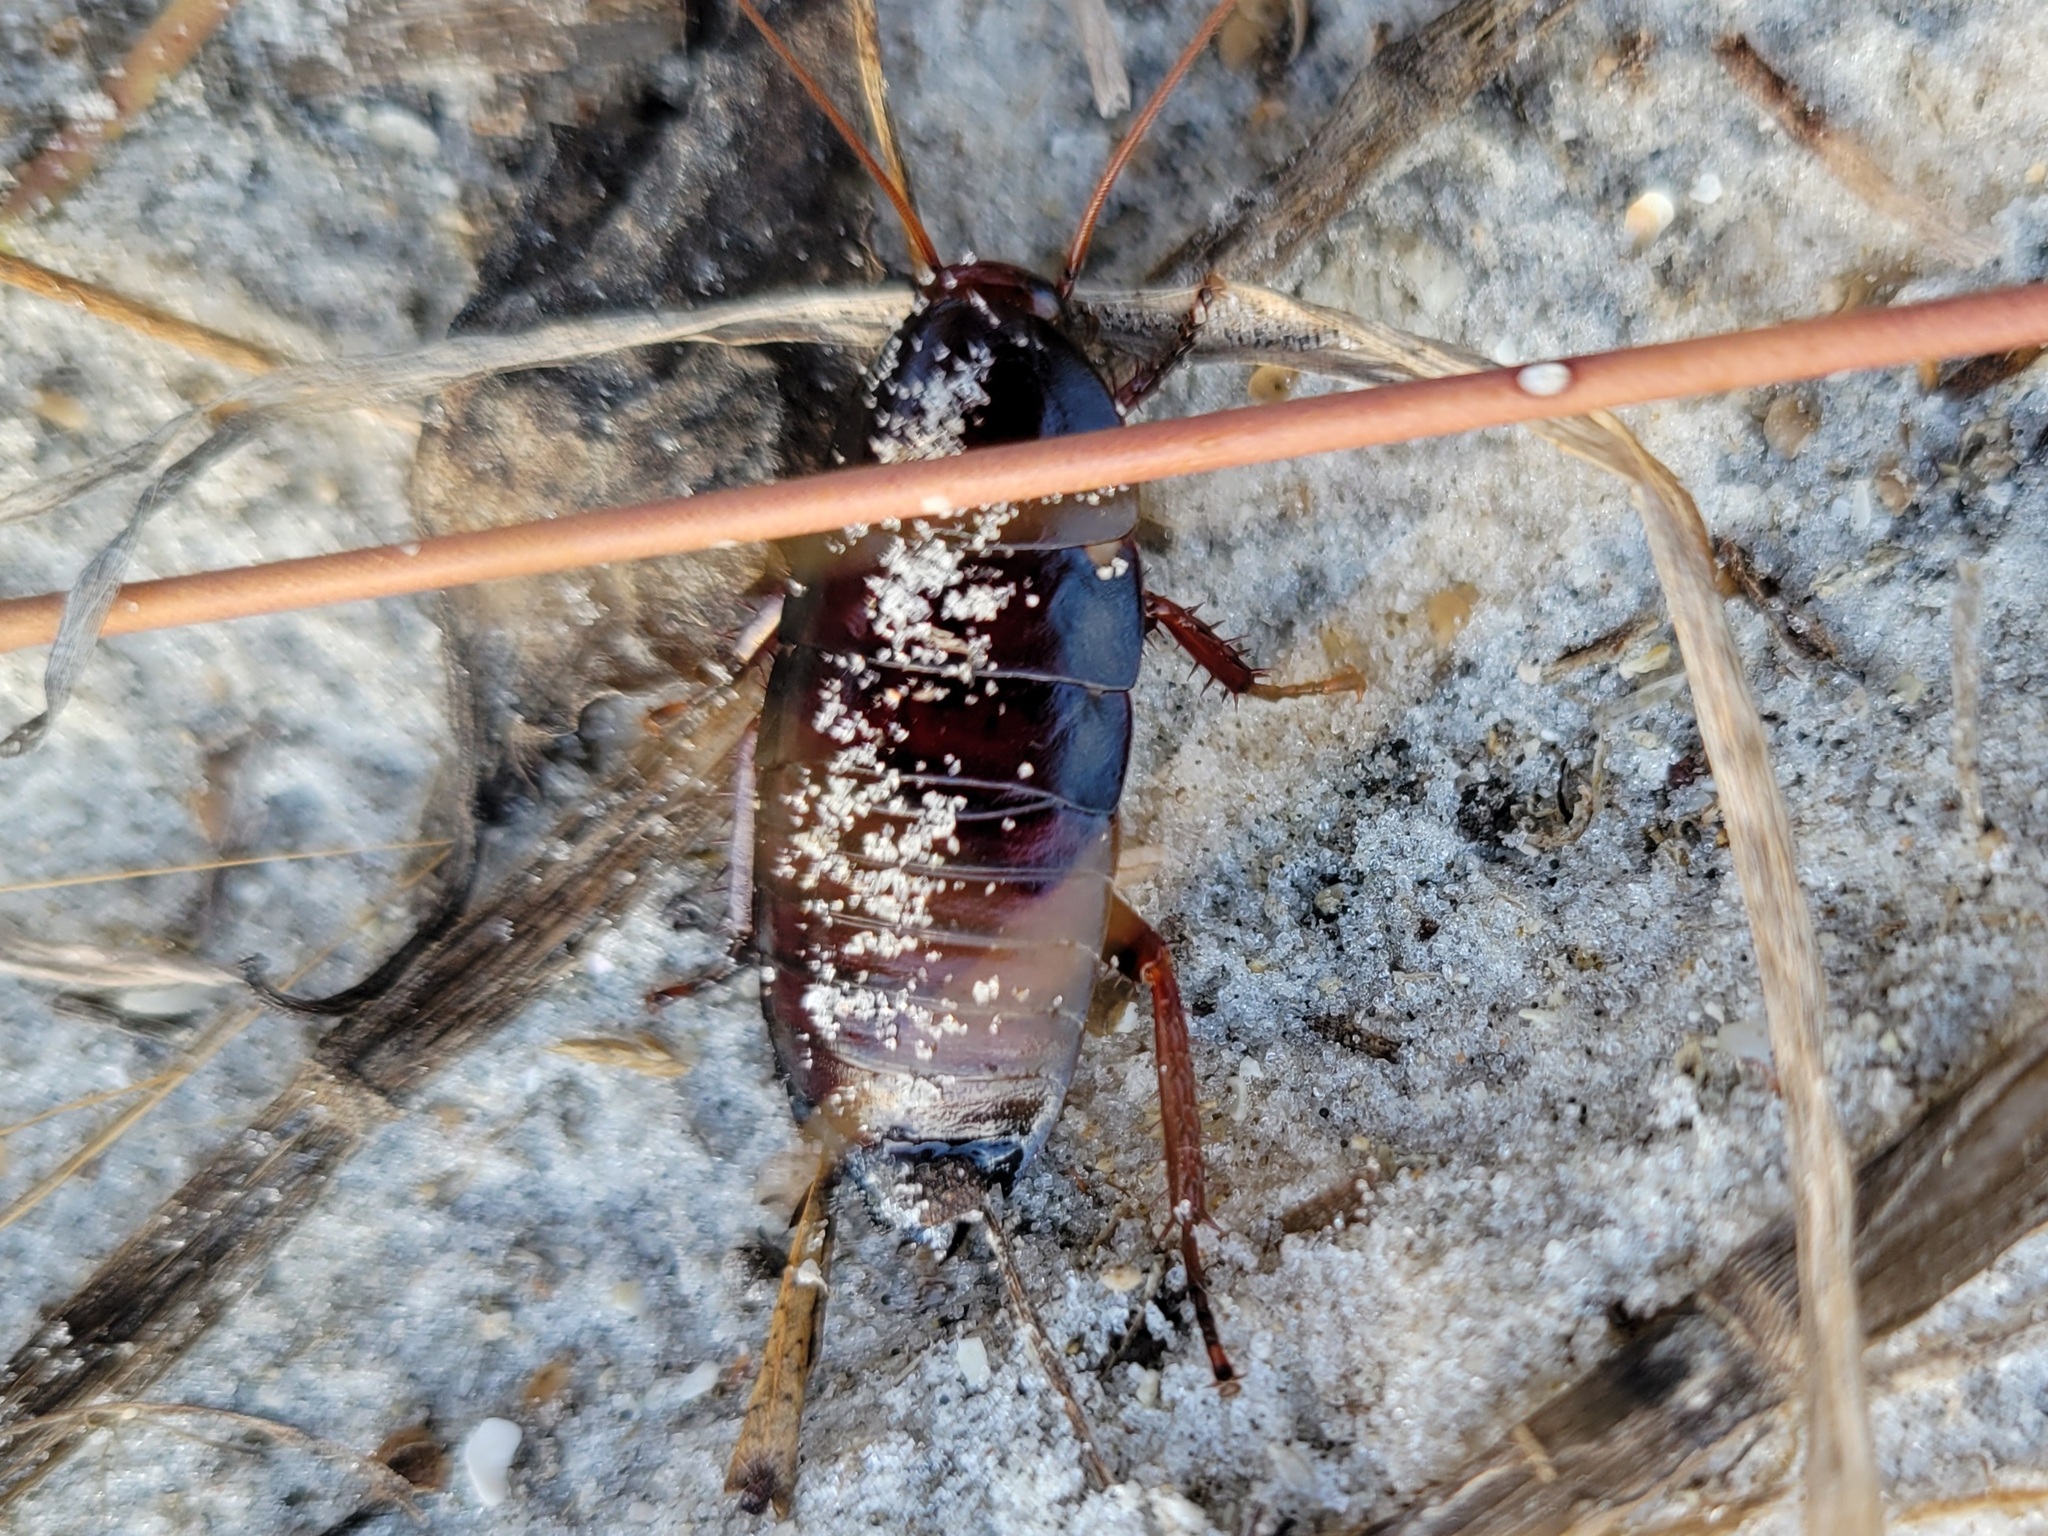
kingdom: Animalia
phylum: Arthropoda
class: Insecta
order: Blattodea
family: Blattidae
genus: Eurycotis
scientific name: Eurycotis floridana
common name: Florida cockroach
